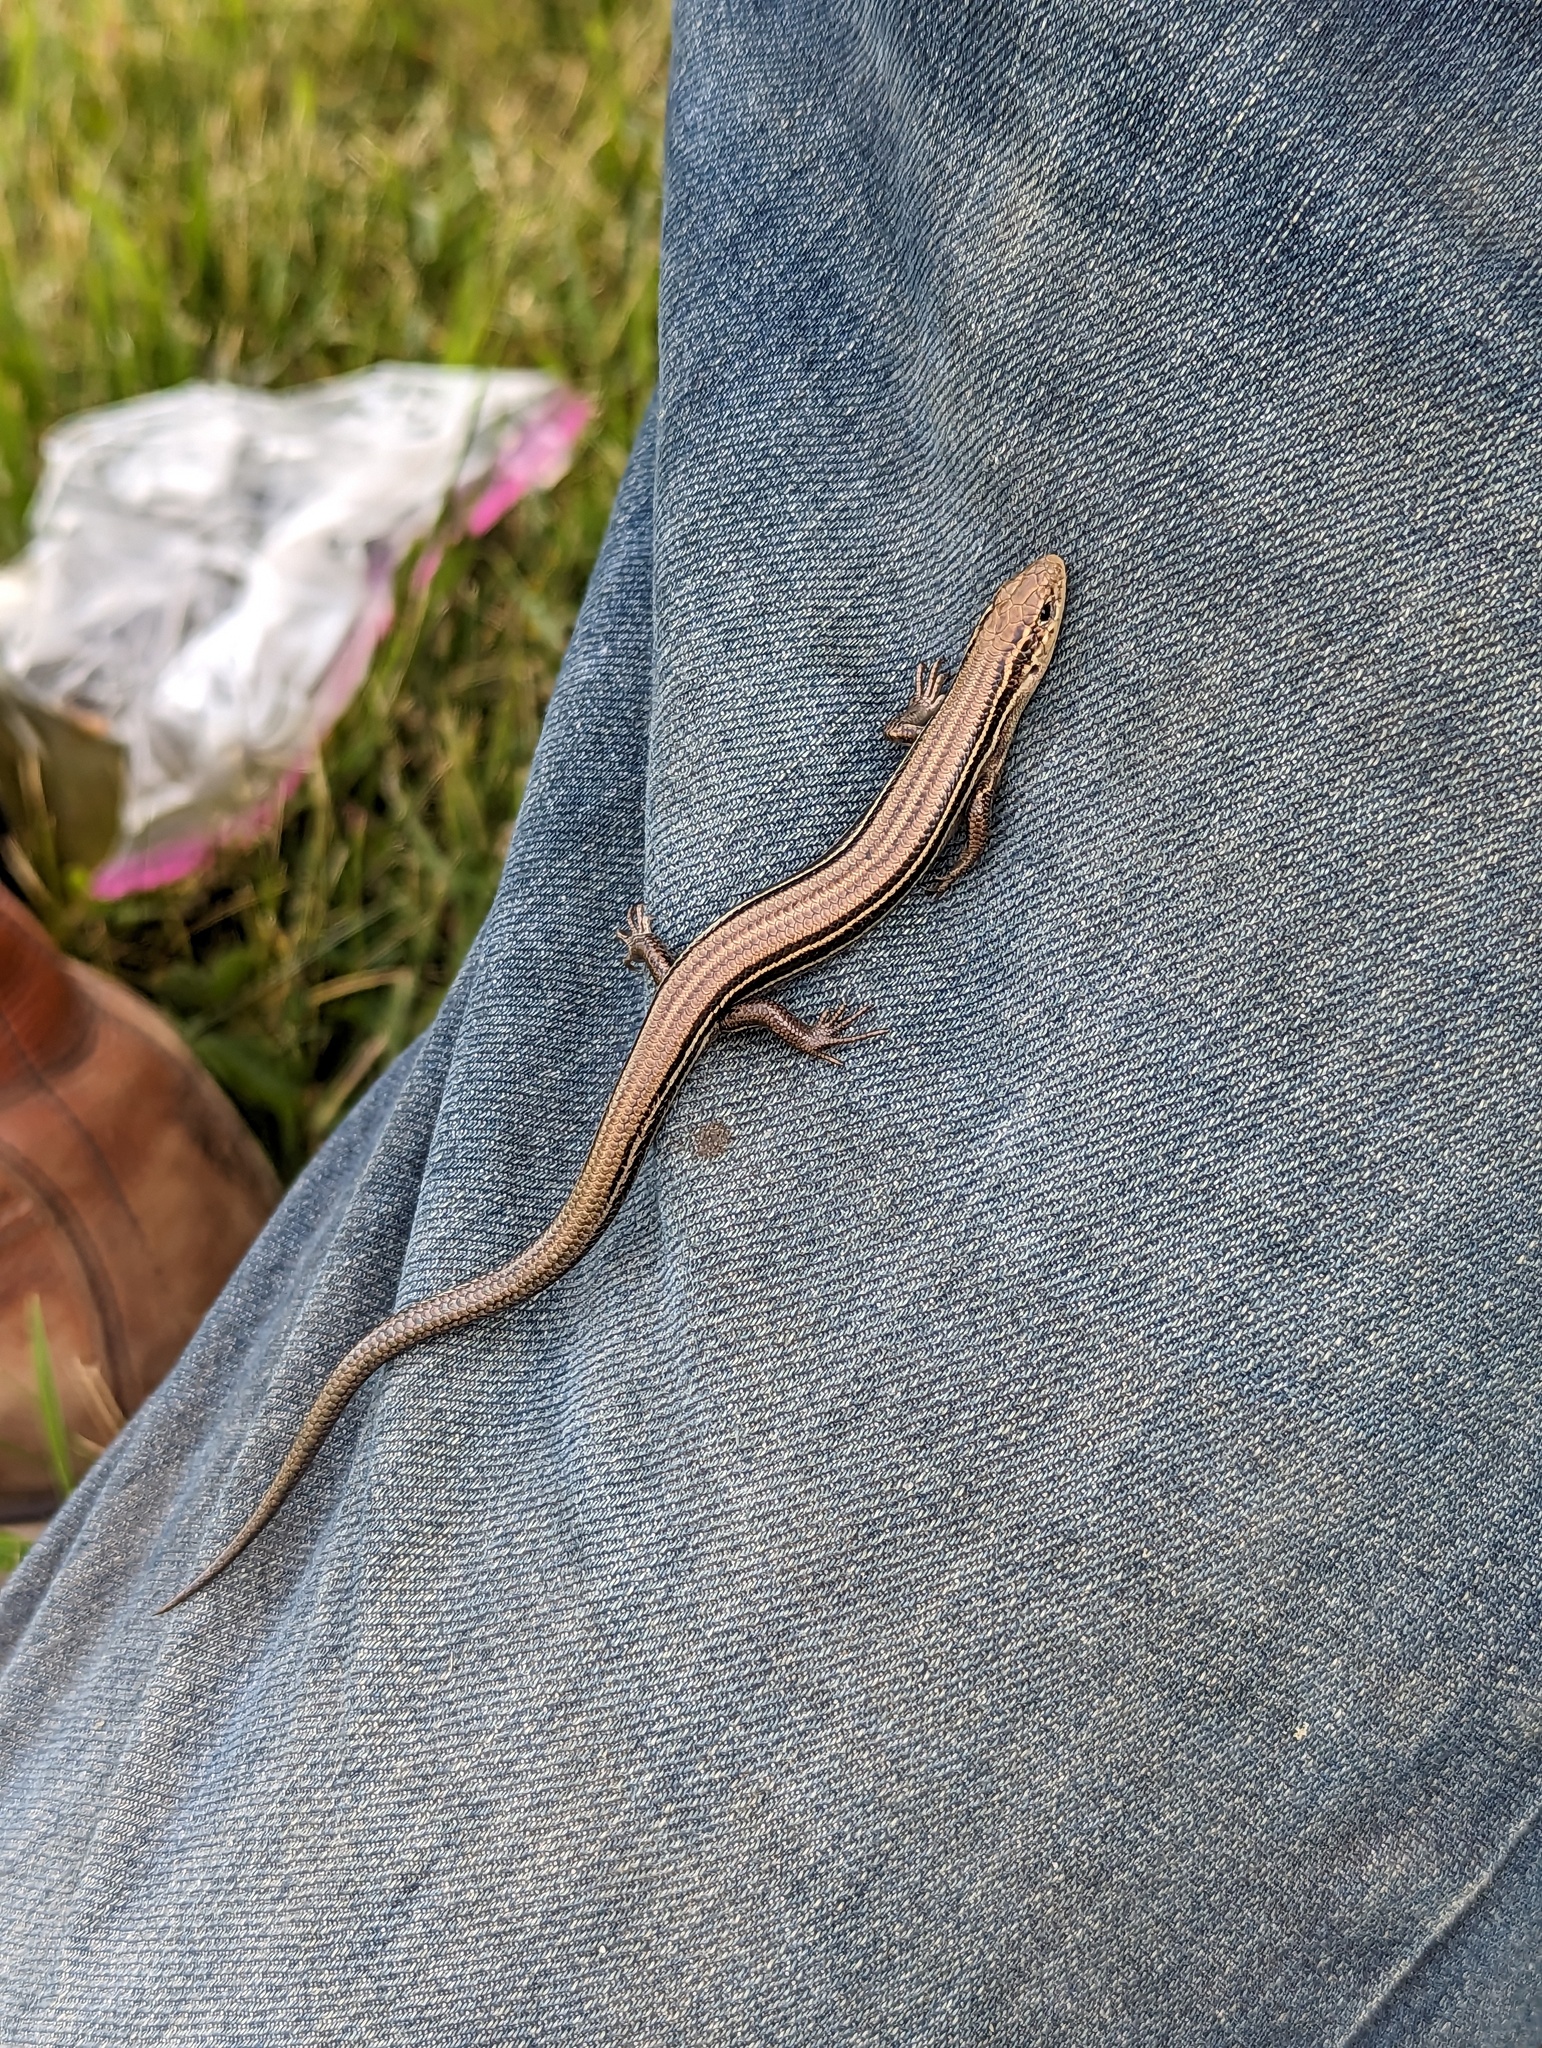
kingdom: Animalia
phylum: Chordata
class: Squamata
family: Scincidae
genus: Plestiodon
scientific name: Plestiodon septentrionalis
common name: Northern prairie skink
